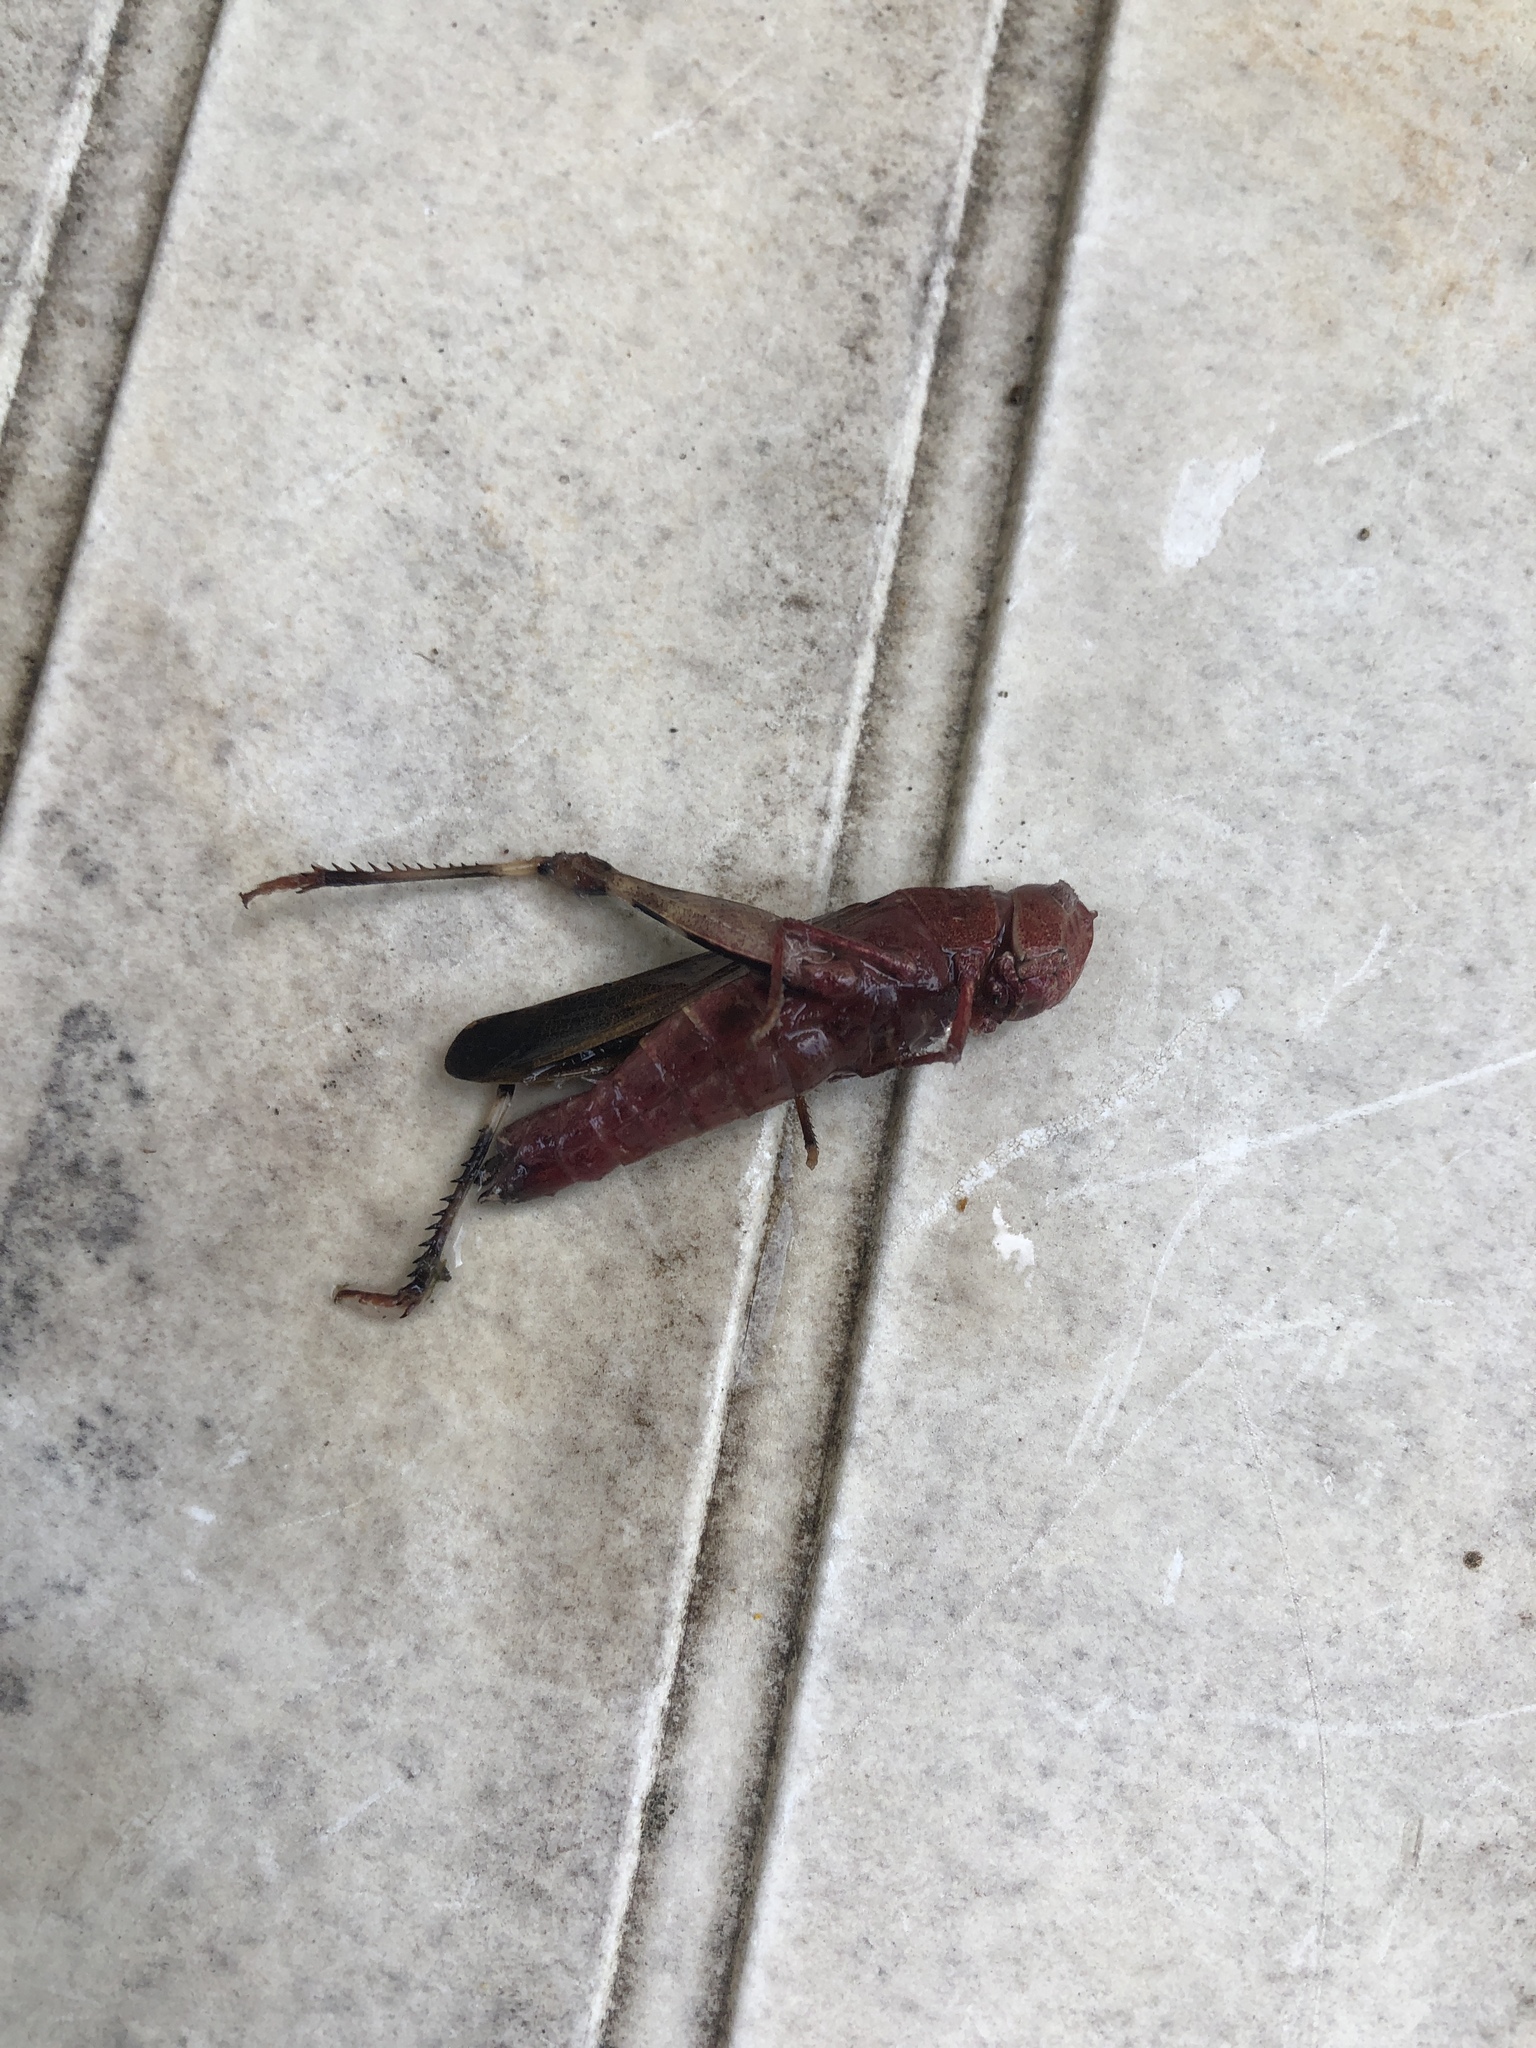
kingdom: Animalia
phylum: Arthropoda
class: Insecta
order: Orthoptera
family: Acrididae
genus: Arphia
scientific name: Arphia sulphurea
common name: Spring yellow-winged locust
